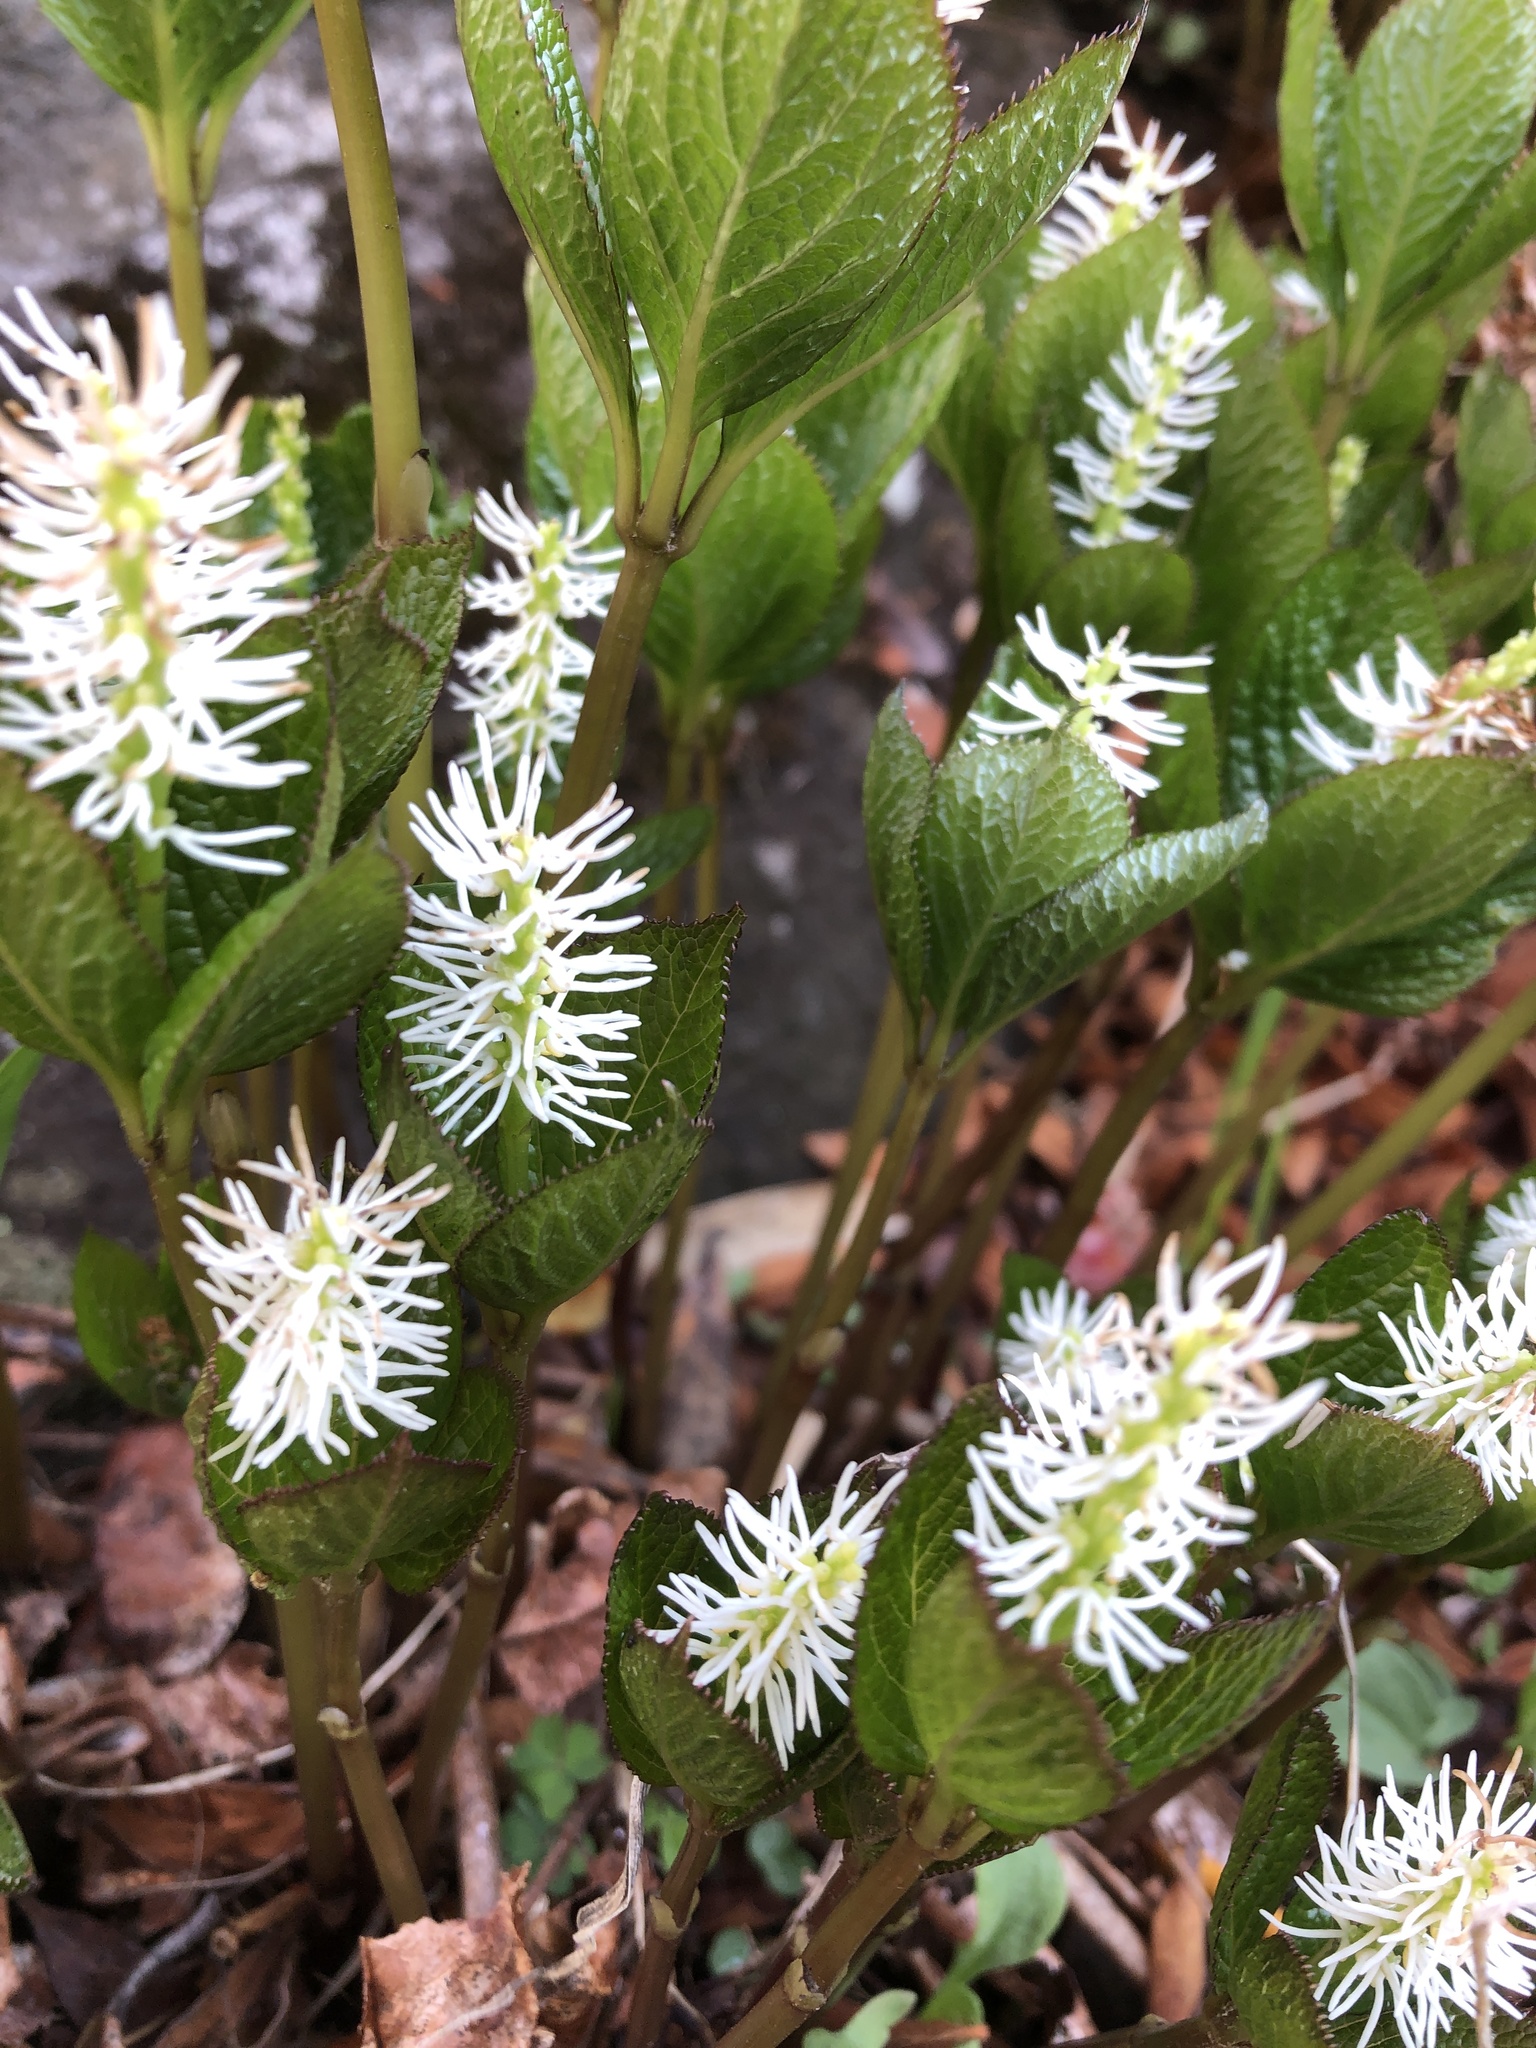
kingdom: Plantae
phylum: Tracheophyta
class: Magnoliopsida
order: Chloranthales
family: Chloranthaceae
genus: Chloranthus
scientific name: Chloranthus quadrifolius
